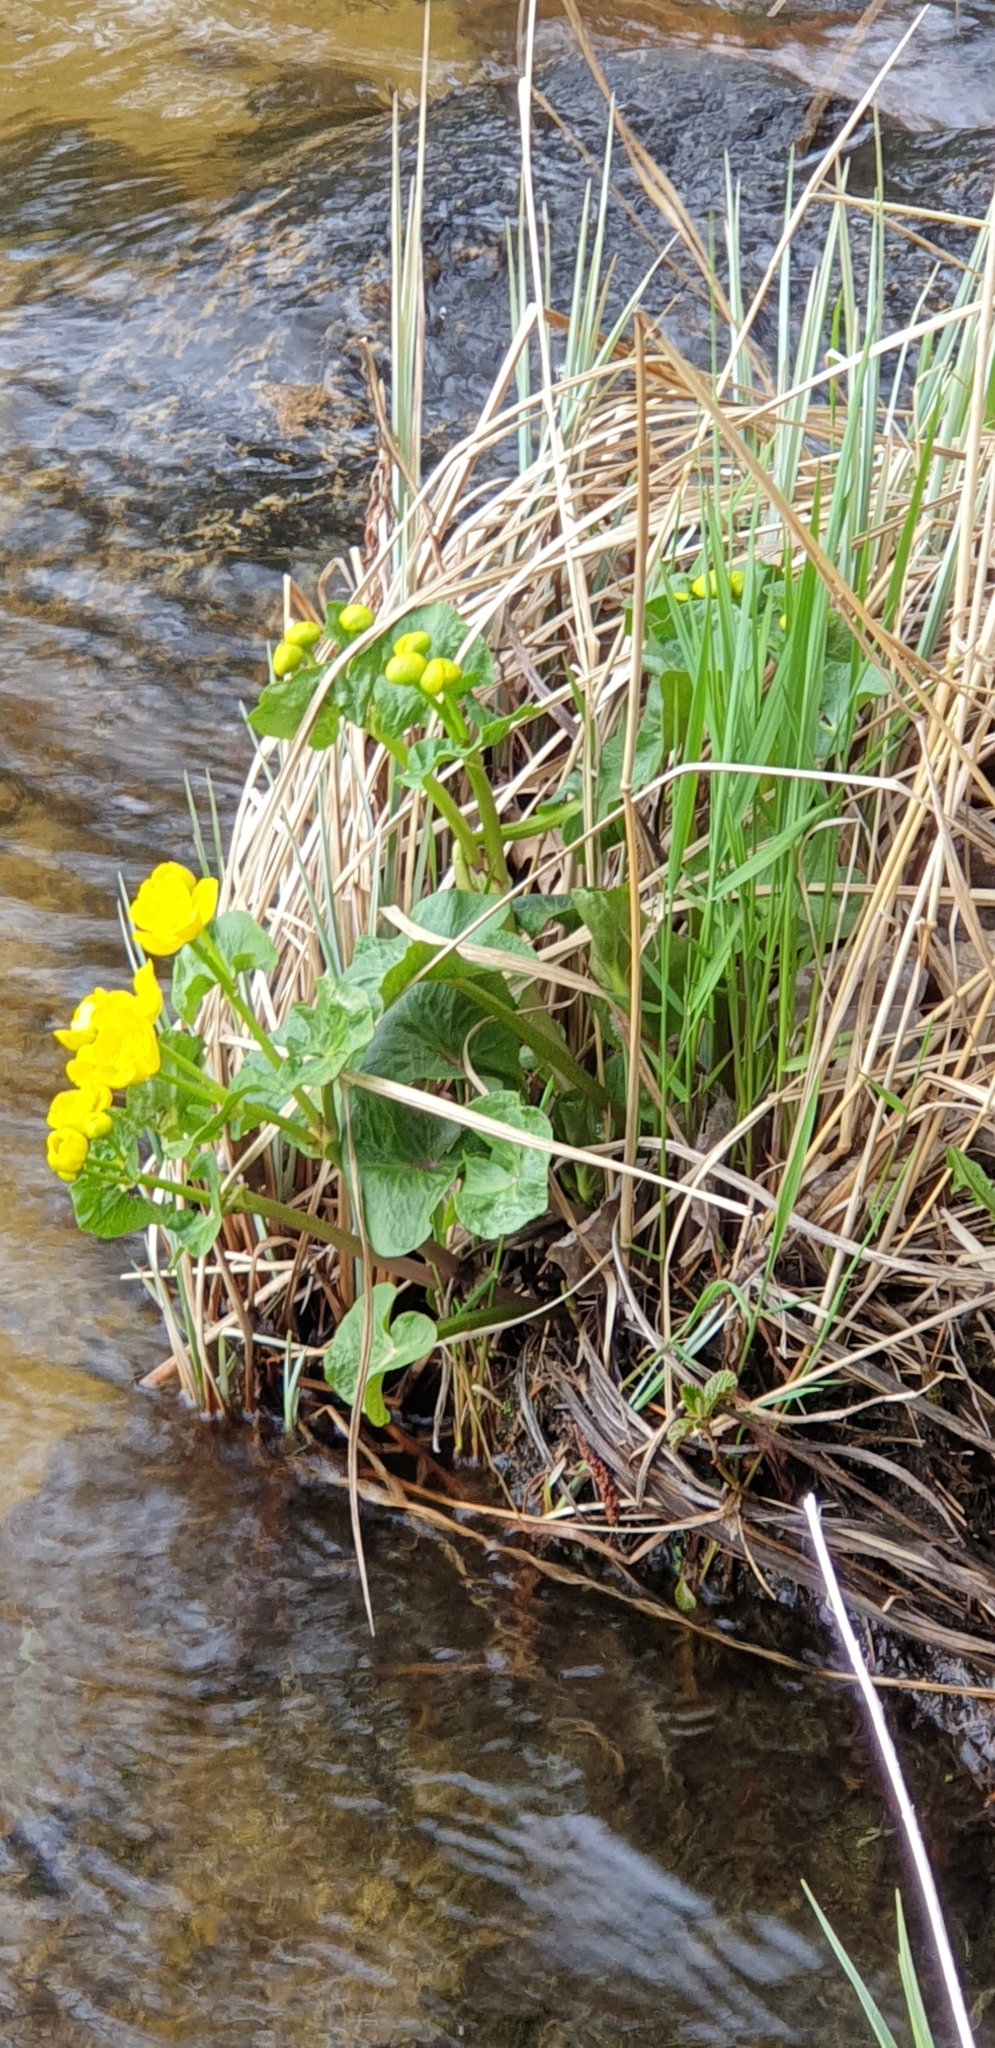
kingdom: Plantae
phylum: Tracheophyta
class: Magnoliopsida
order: Ranunculales
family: Ranunculaceae
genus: Caltha
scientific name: Caltha palustris
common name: Marsh marigold
